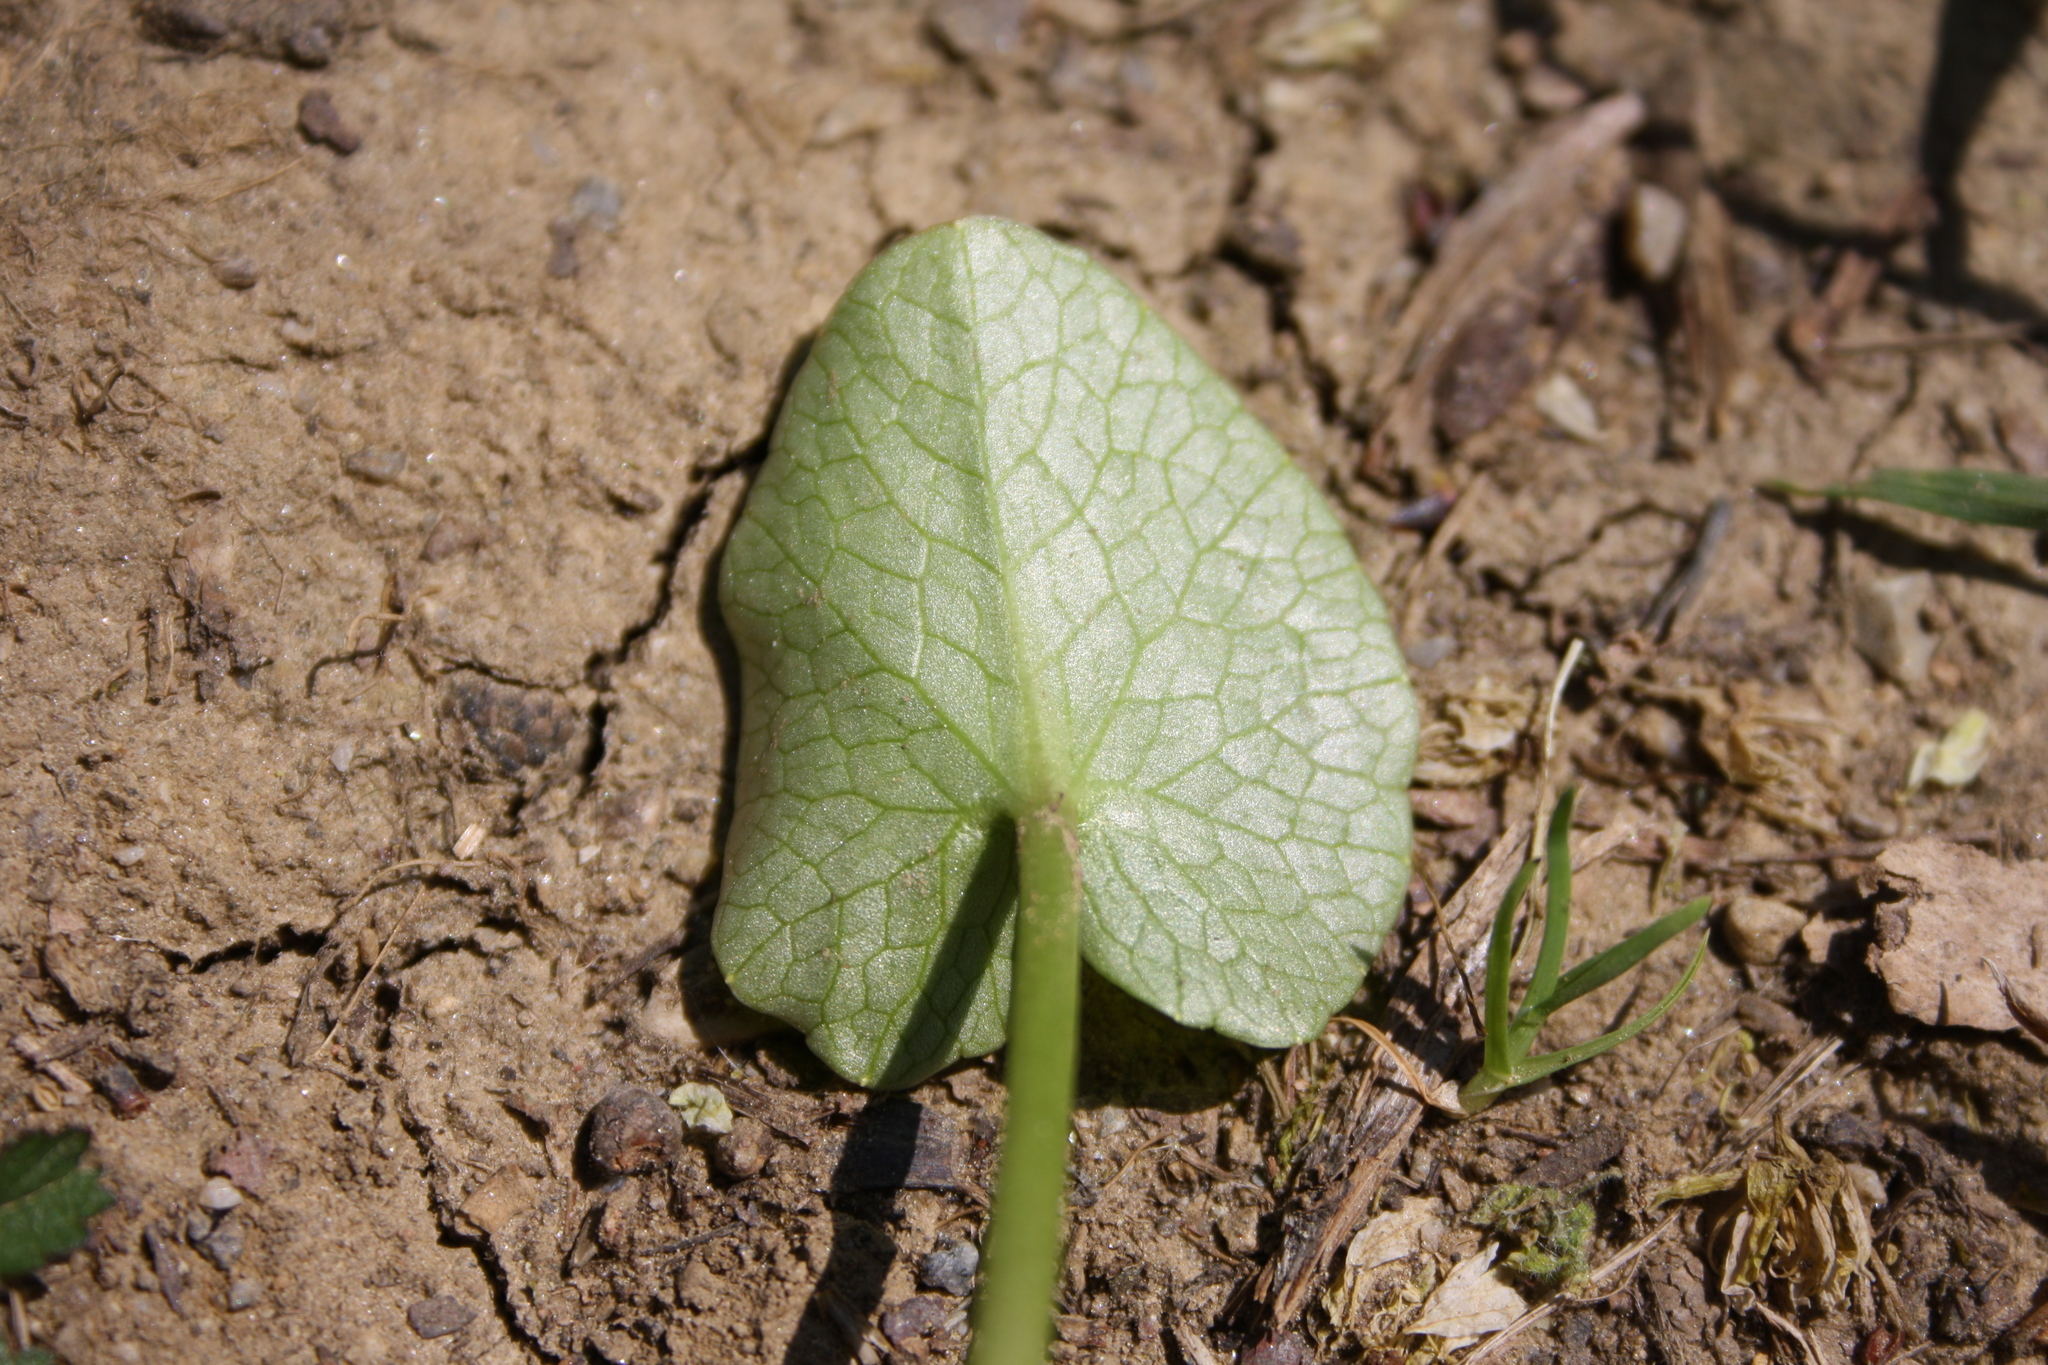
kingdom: Plantae
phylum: Tracheophyta
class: Magnoliopsida
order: Ranunculales
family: Ranunculaceae
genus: Ficaria
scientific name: Ficaria verna
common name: Lesser celandine
